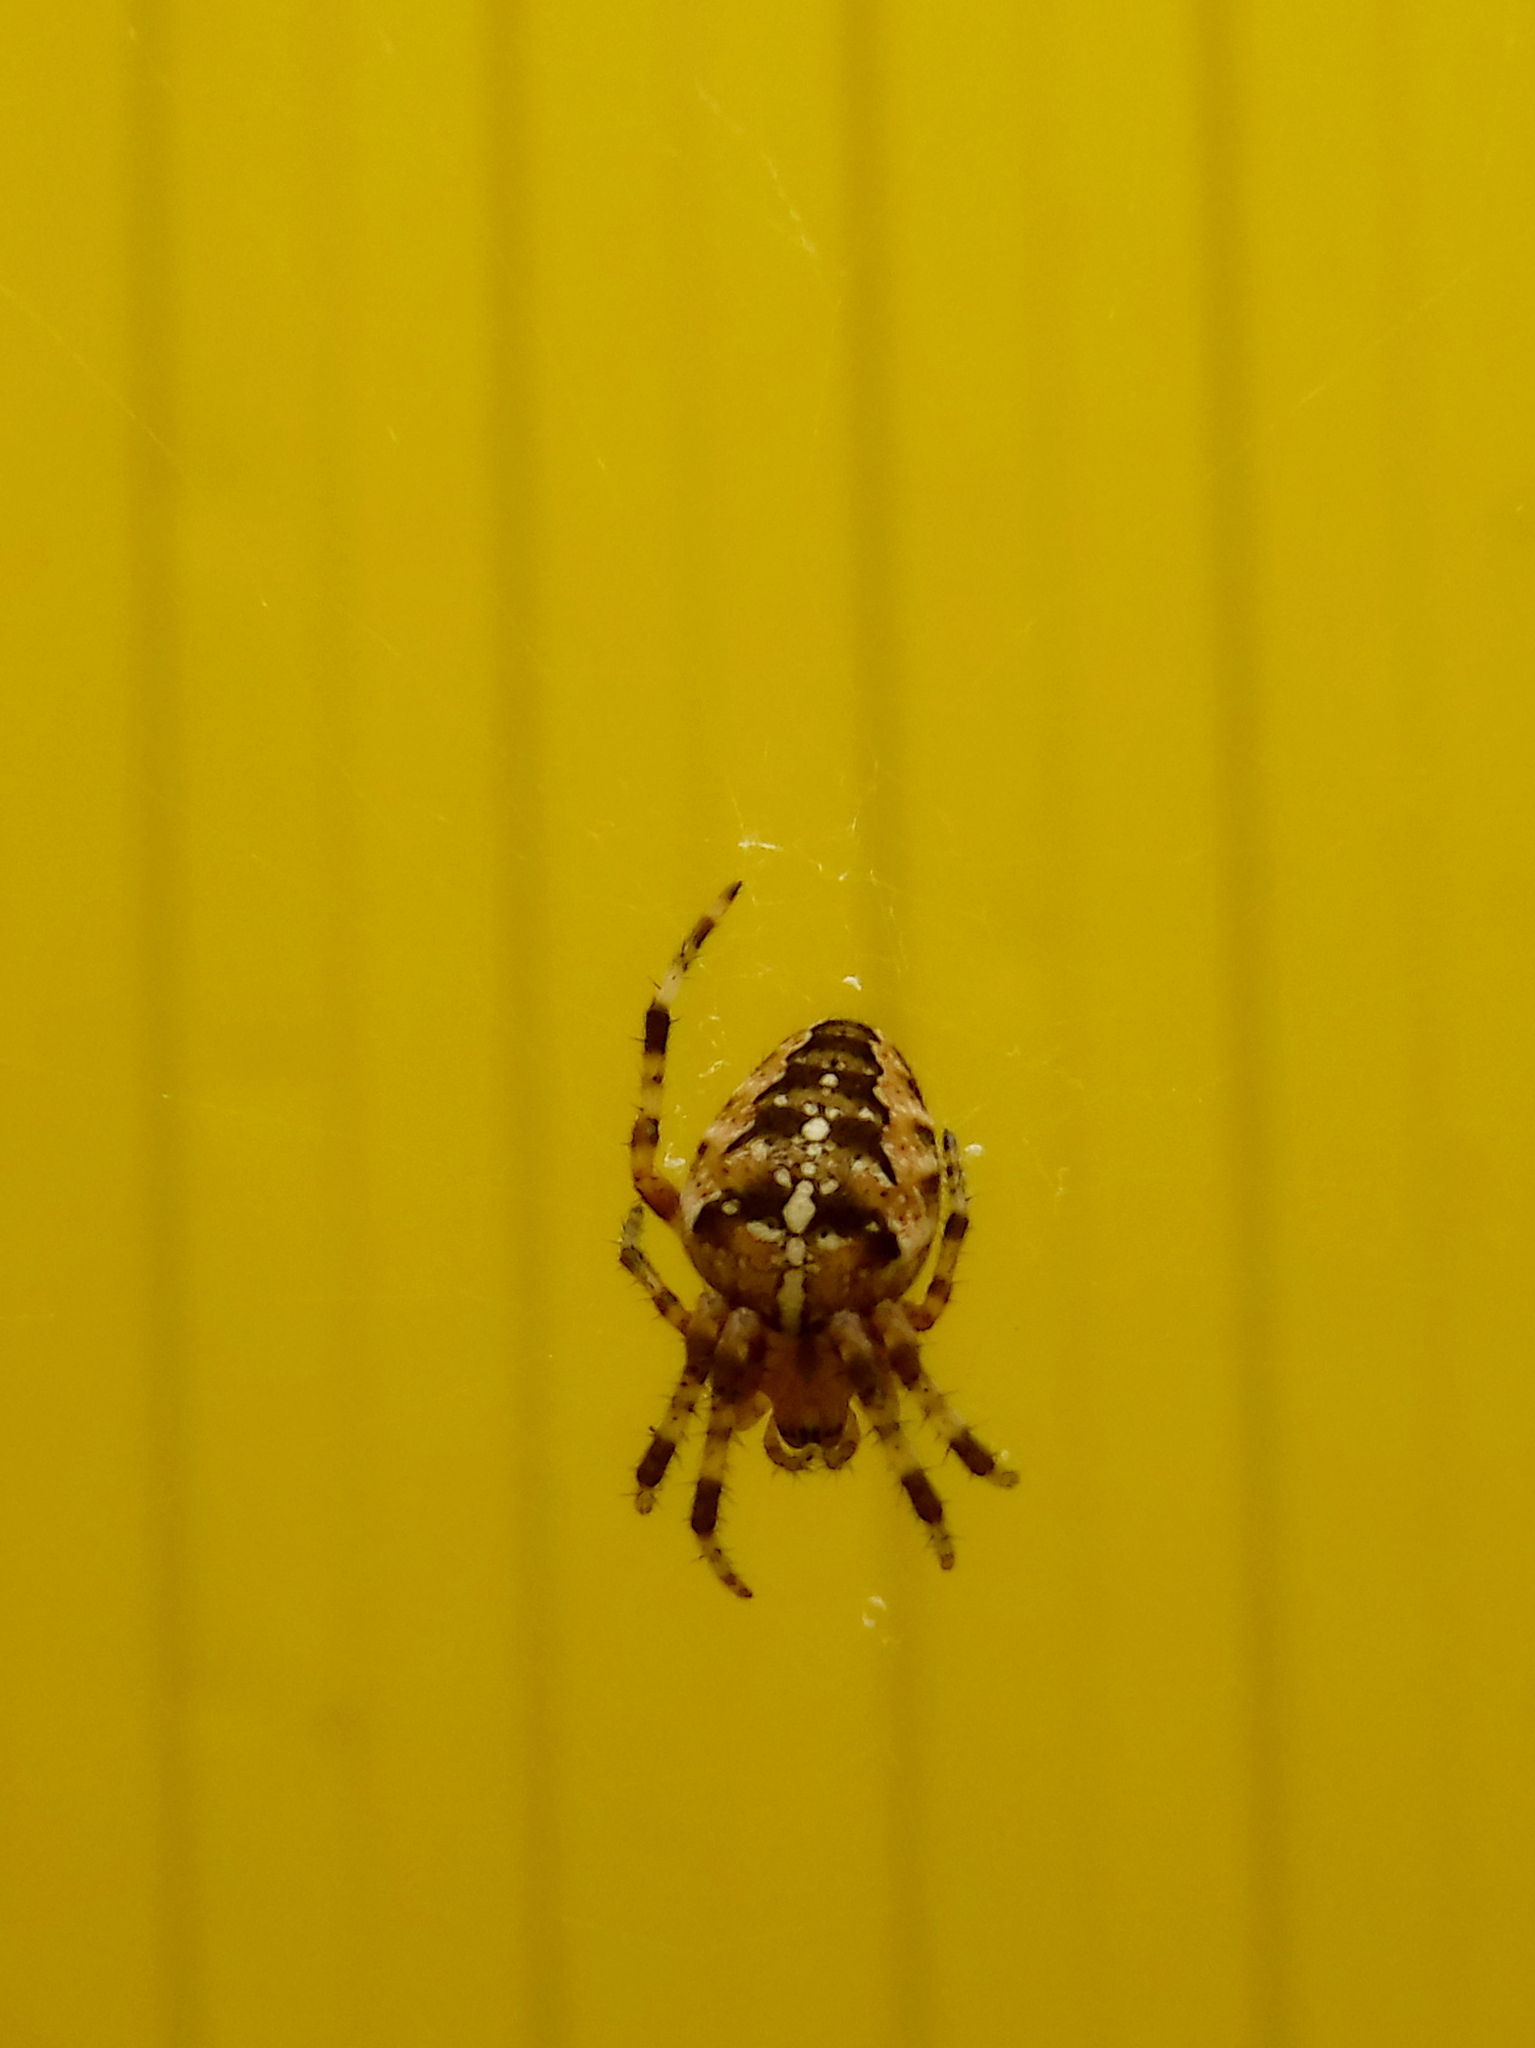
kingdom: Animalia
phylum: Arthropoda
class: Arachnida
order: Araneae
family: Araneidae
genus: Araneus
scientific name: Araneus diadematus
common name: Cross orbweaver
